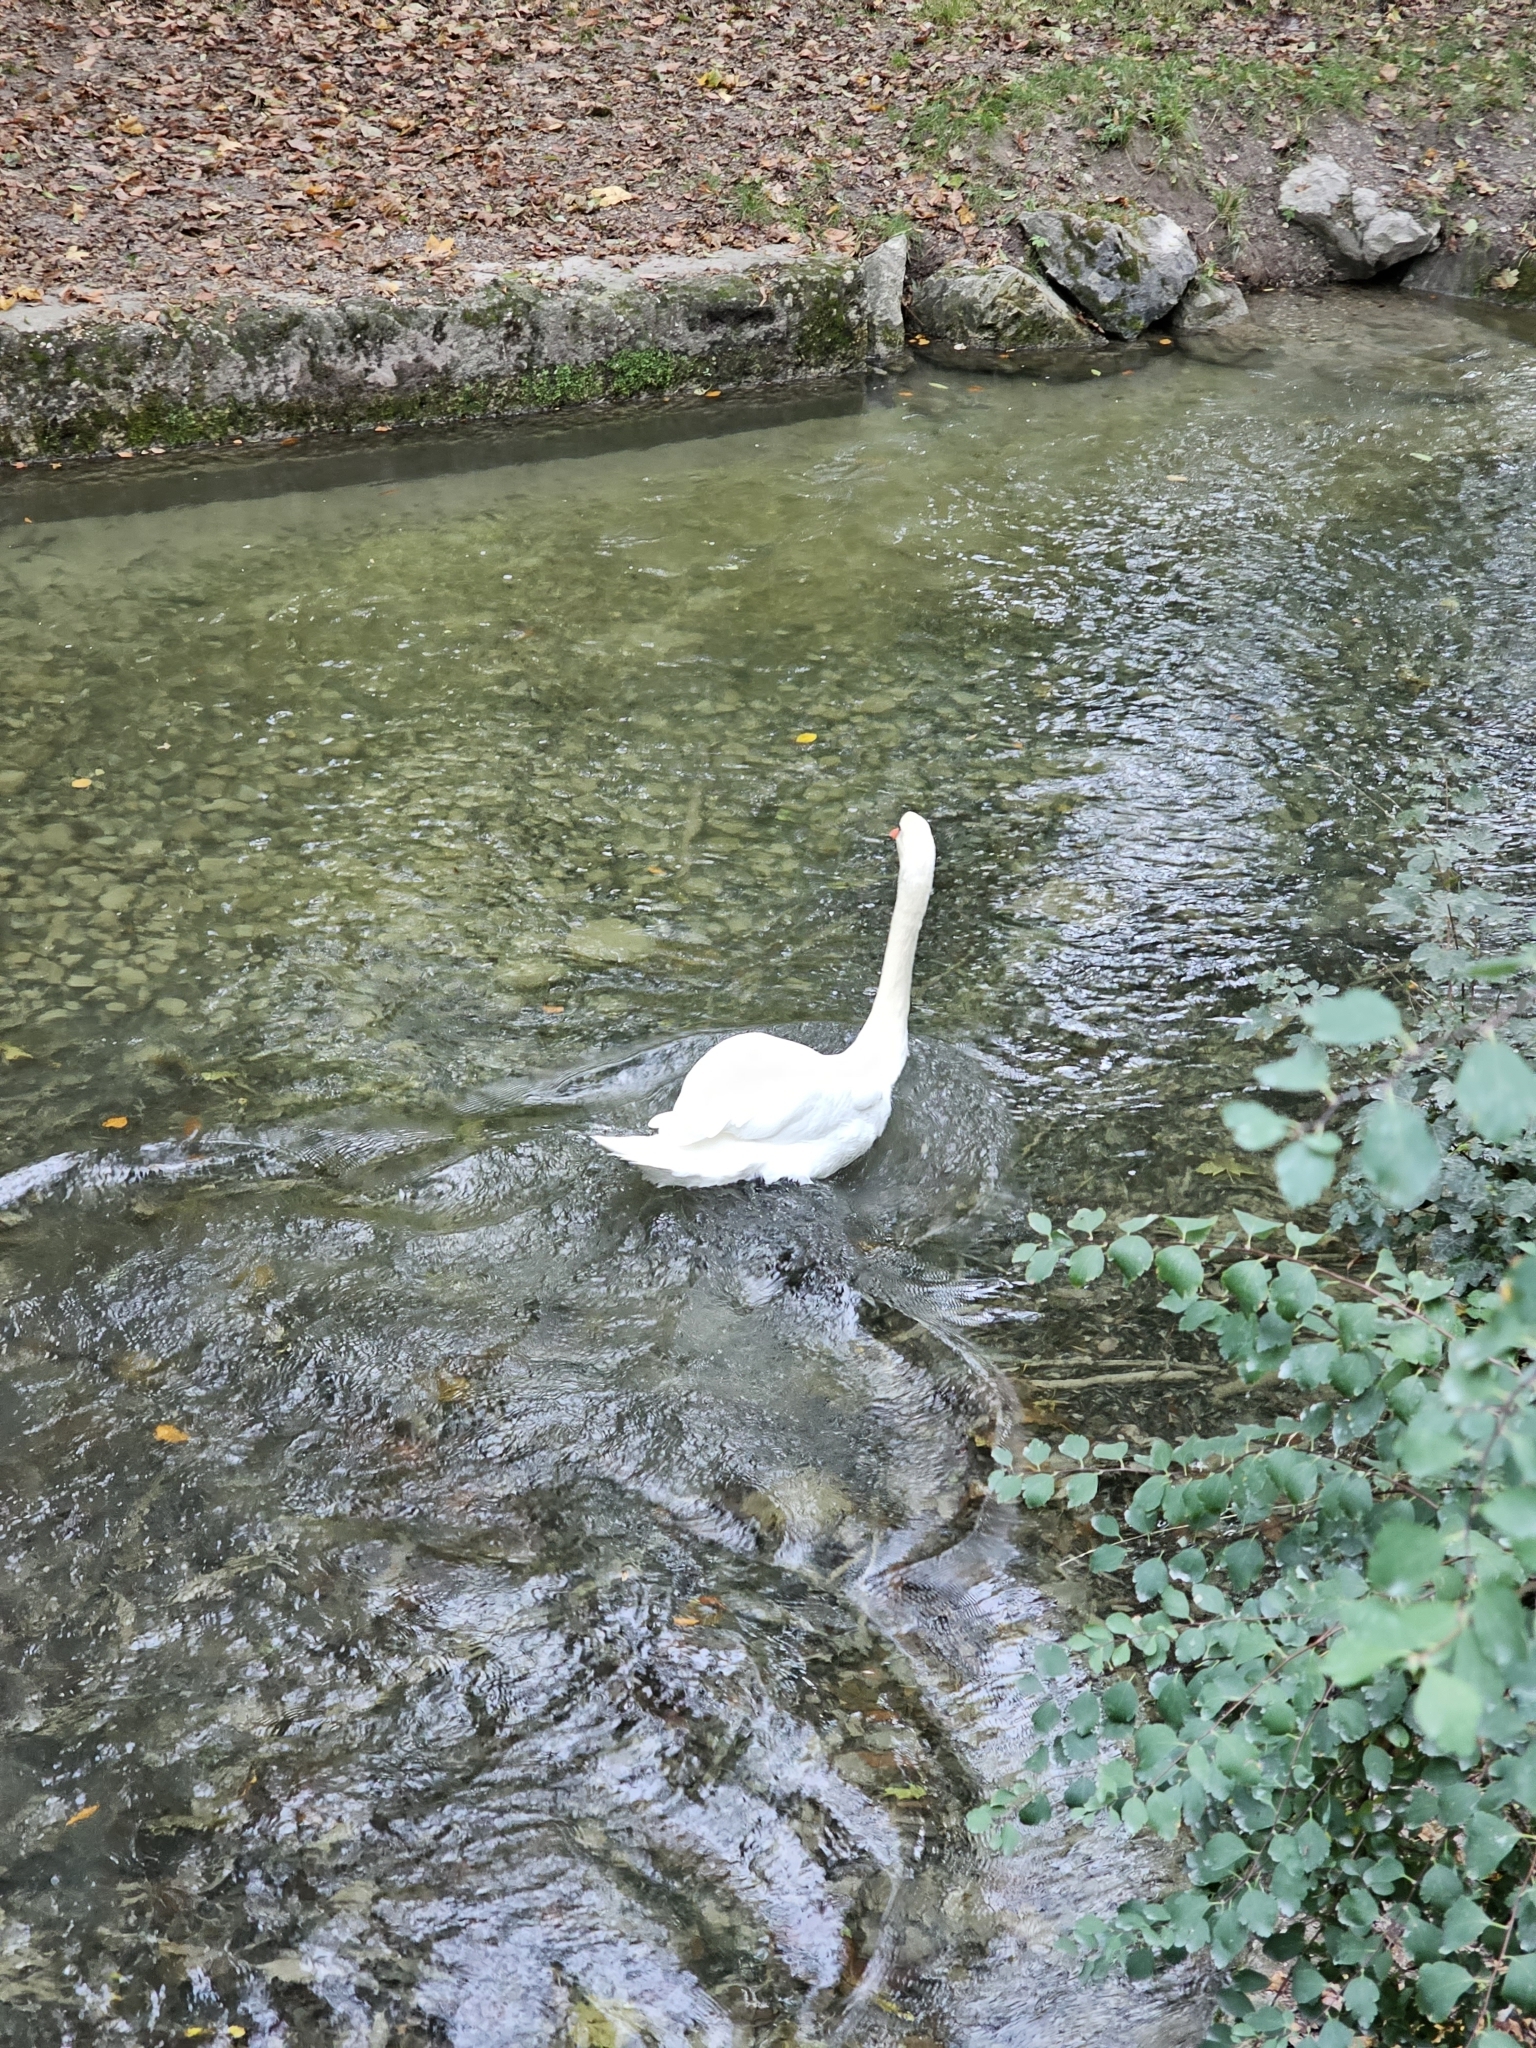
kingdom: Animalia
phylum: Chordata
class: Aves
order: Anseriformes
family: Anatidae
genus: Cygnus
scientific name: Cygnus olor
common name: Mute swan
